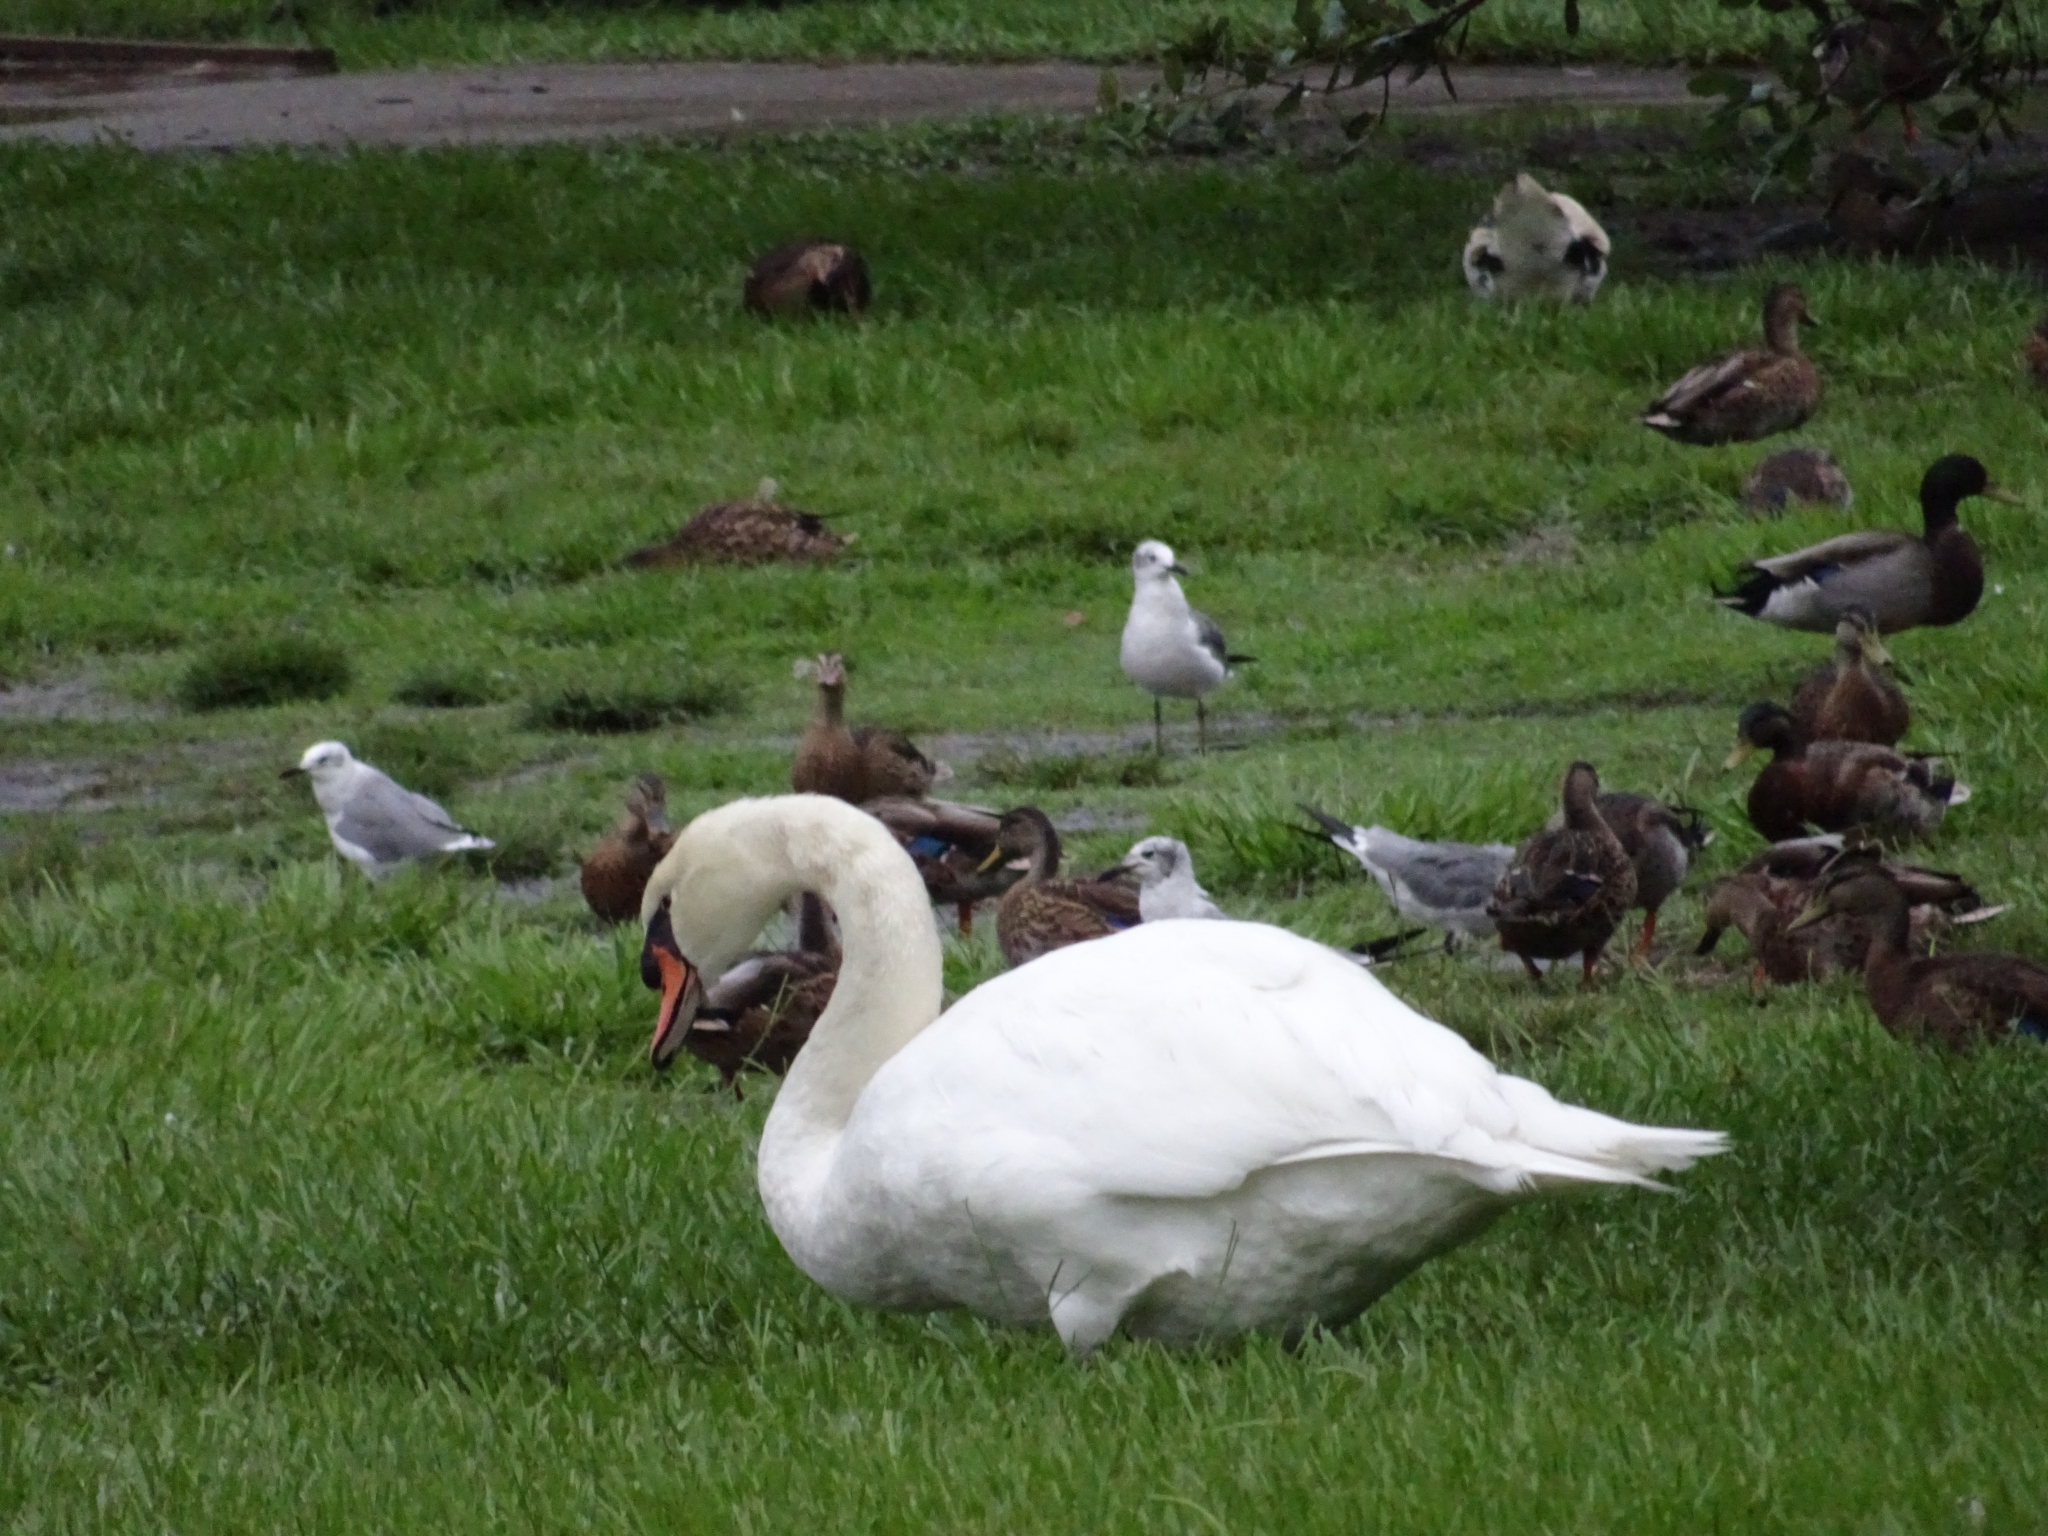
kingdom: Animalia
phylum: Chordata
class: Aves
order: Anseriformes
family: Anatidae
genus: Cygnus
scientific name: Cygnus olor
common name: Mute swan
